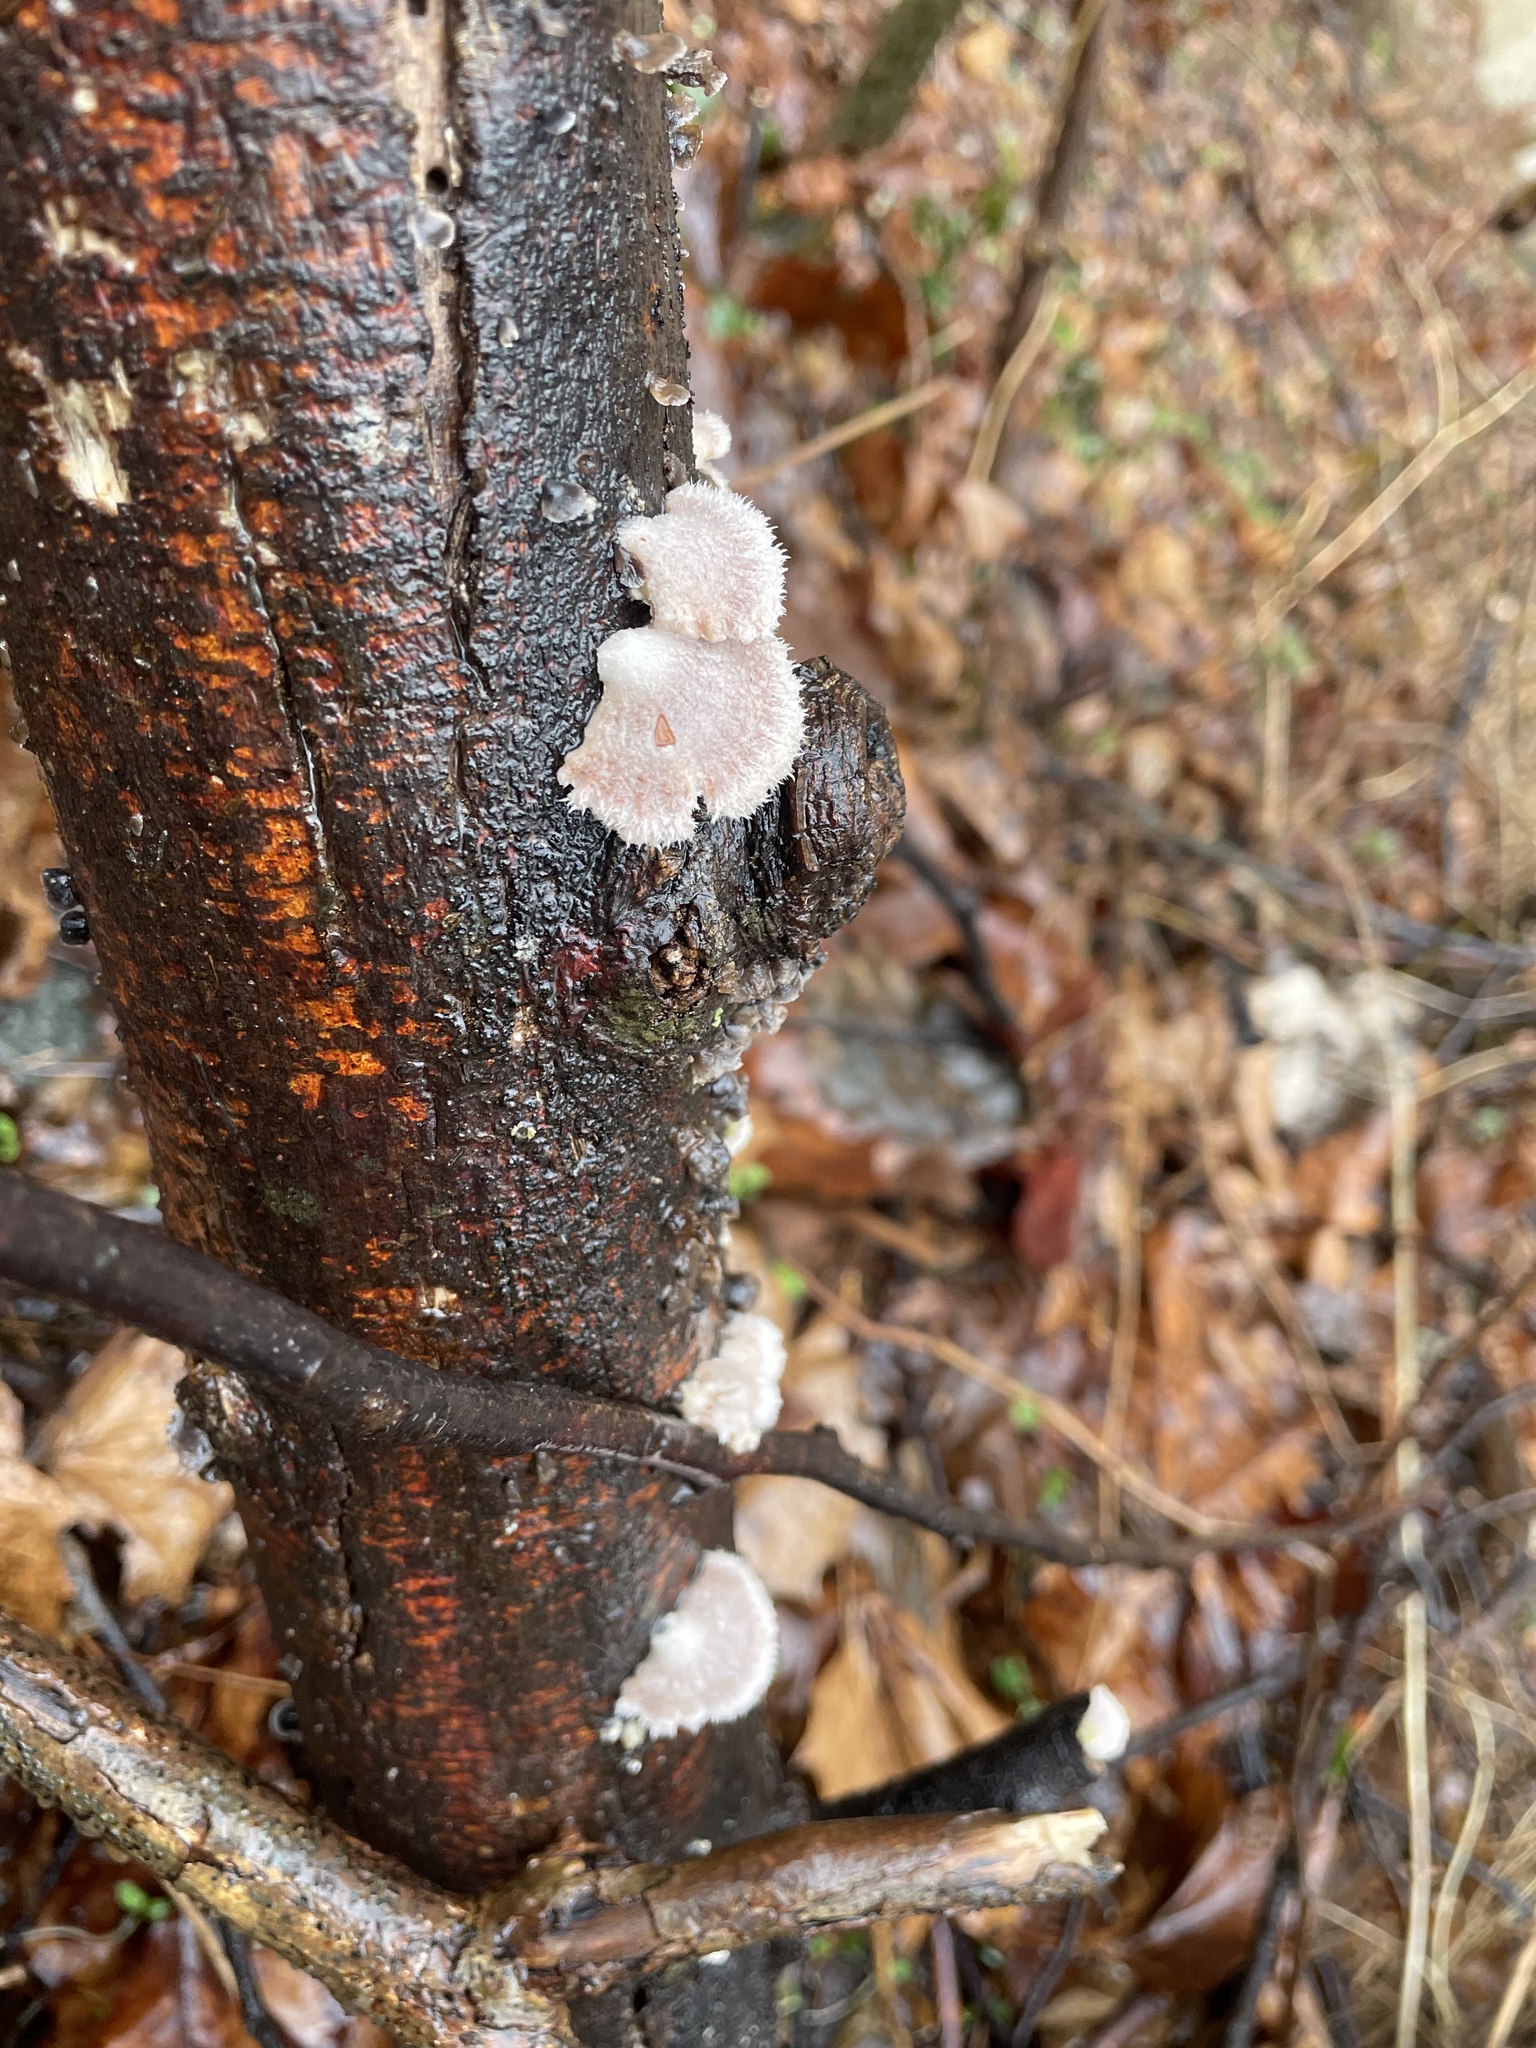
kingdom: Fungi
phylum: Basidiomycota
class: Agaricomycetes
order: Agaricales
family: Schizophyllaceae
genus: Schizophyllum
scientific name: Schizophyllum commune
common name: Common porecrust
